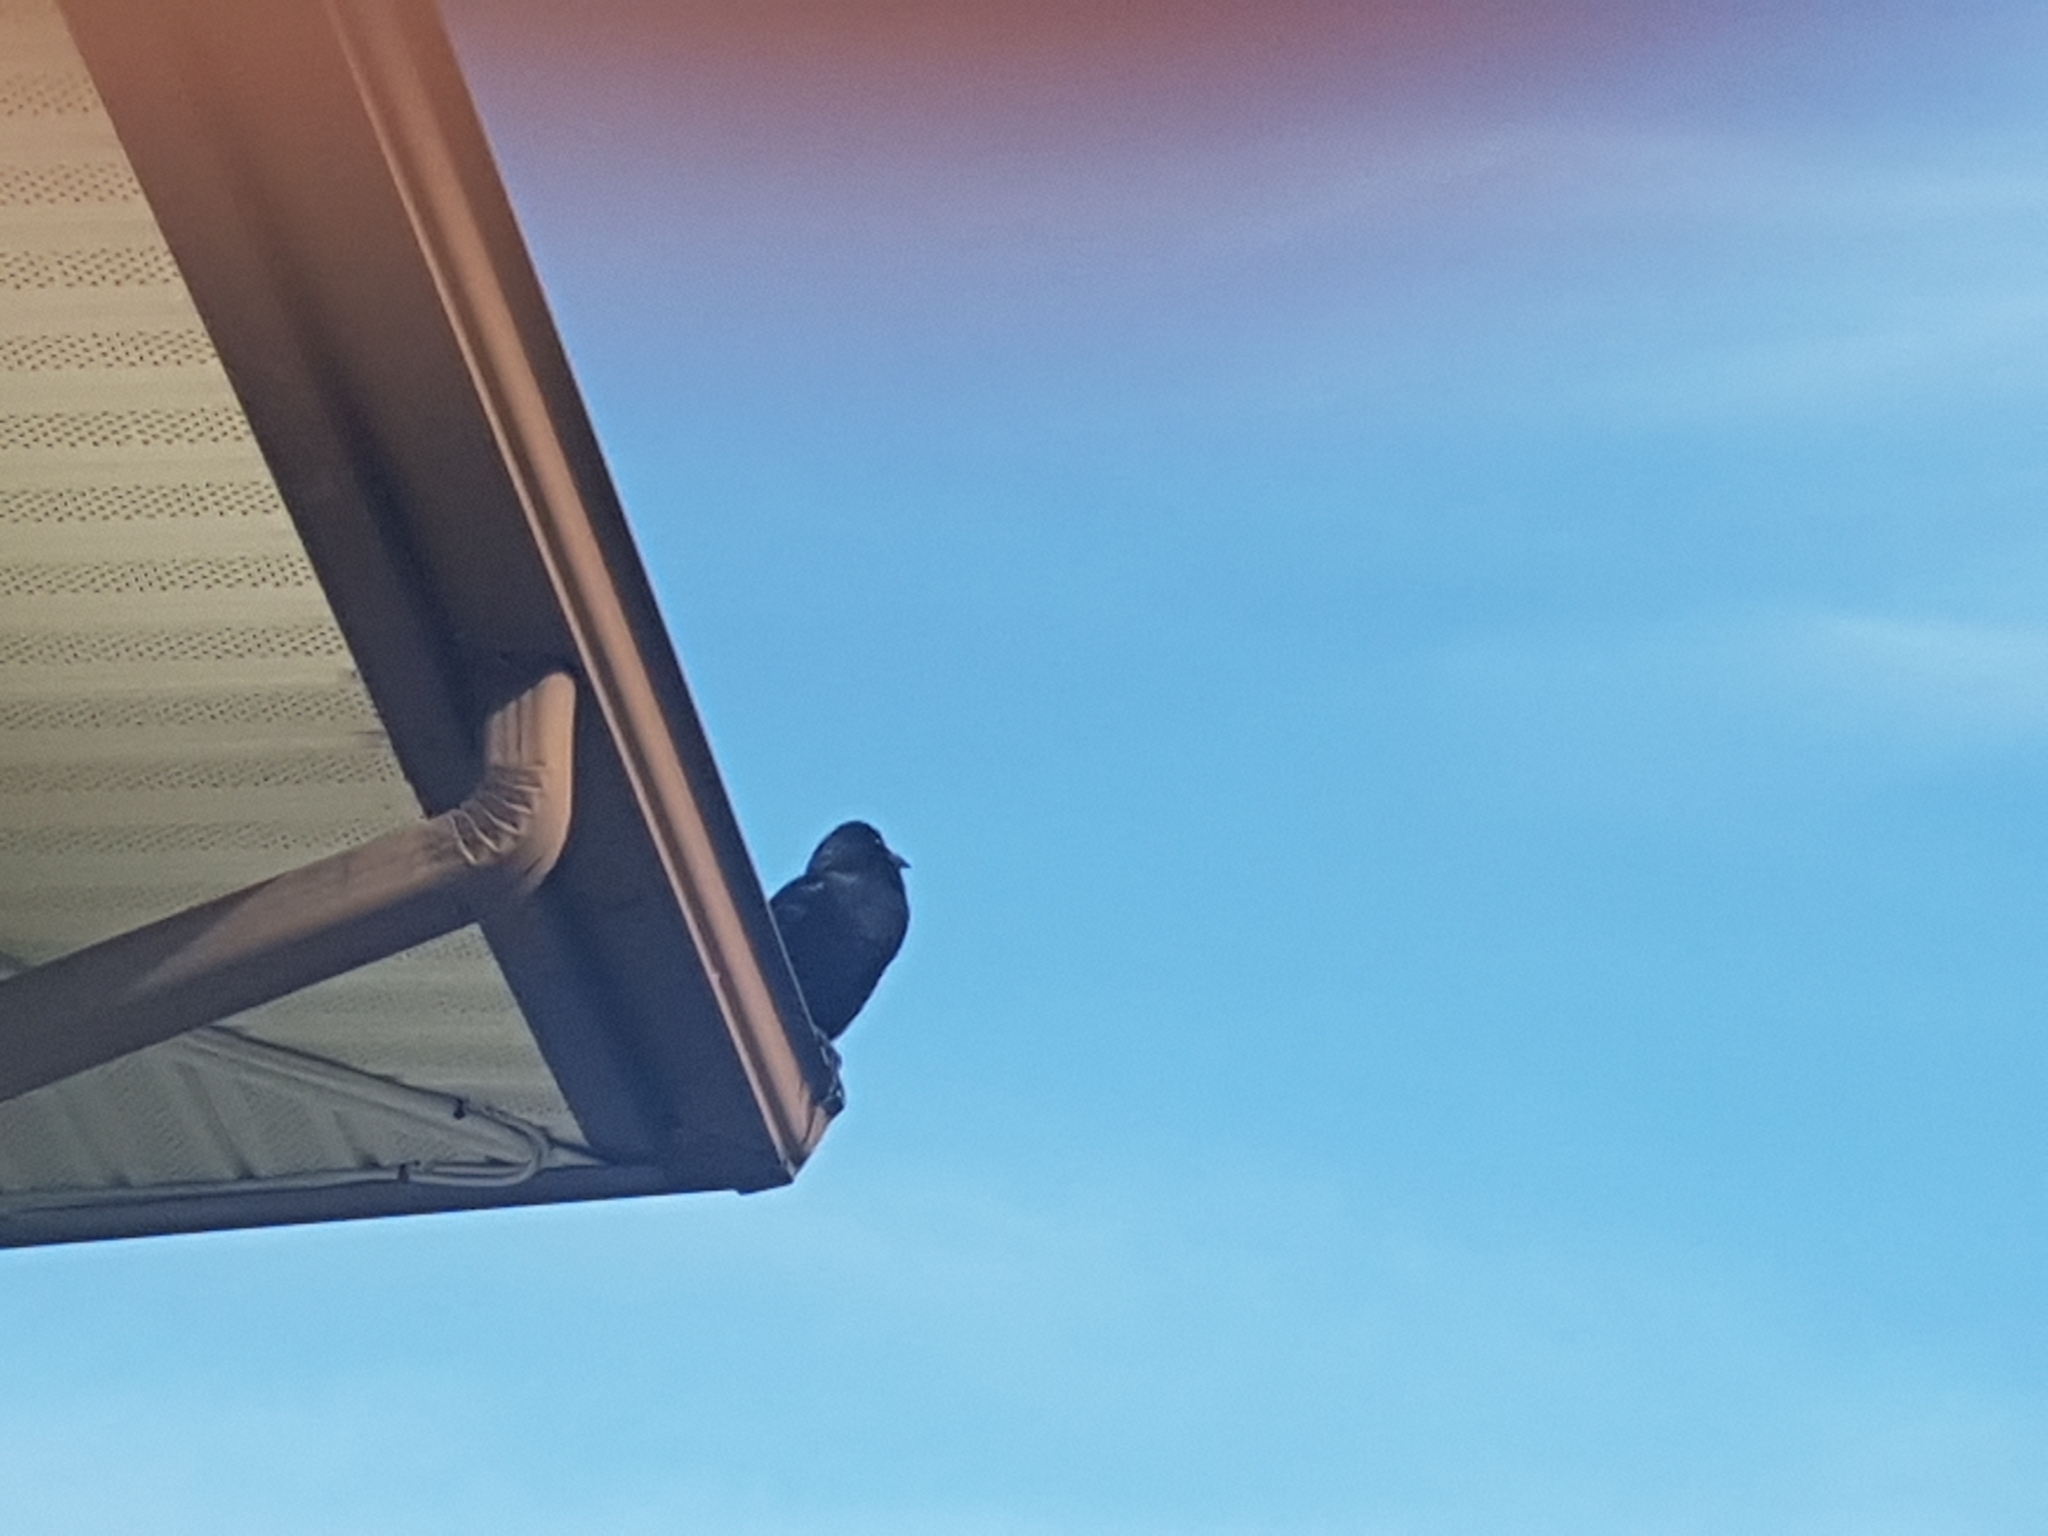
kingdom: Animalia
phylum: Chordata
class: Aves
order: Passeriformes
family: Corvidae
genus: Corvus
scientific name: Corvus brachyrhynchos
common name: American crow
